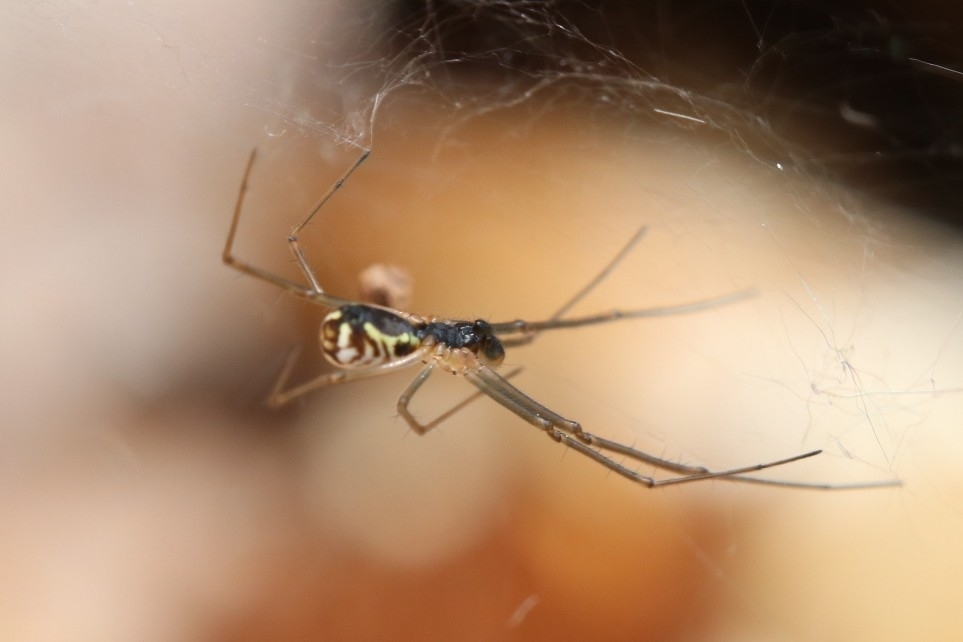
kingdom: Animalia
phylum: Arthropoda
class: Arachnida
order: Araneae
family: Linyphiidae
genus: Neriene
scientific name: Neriene radiata
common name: Filmy dome spider
